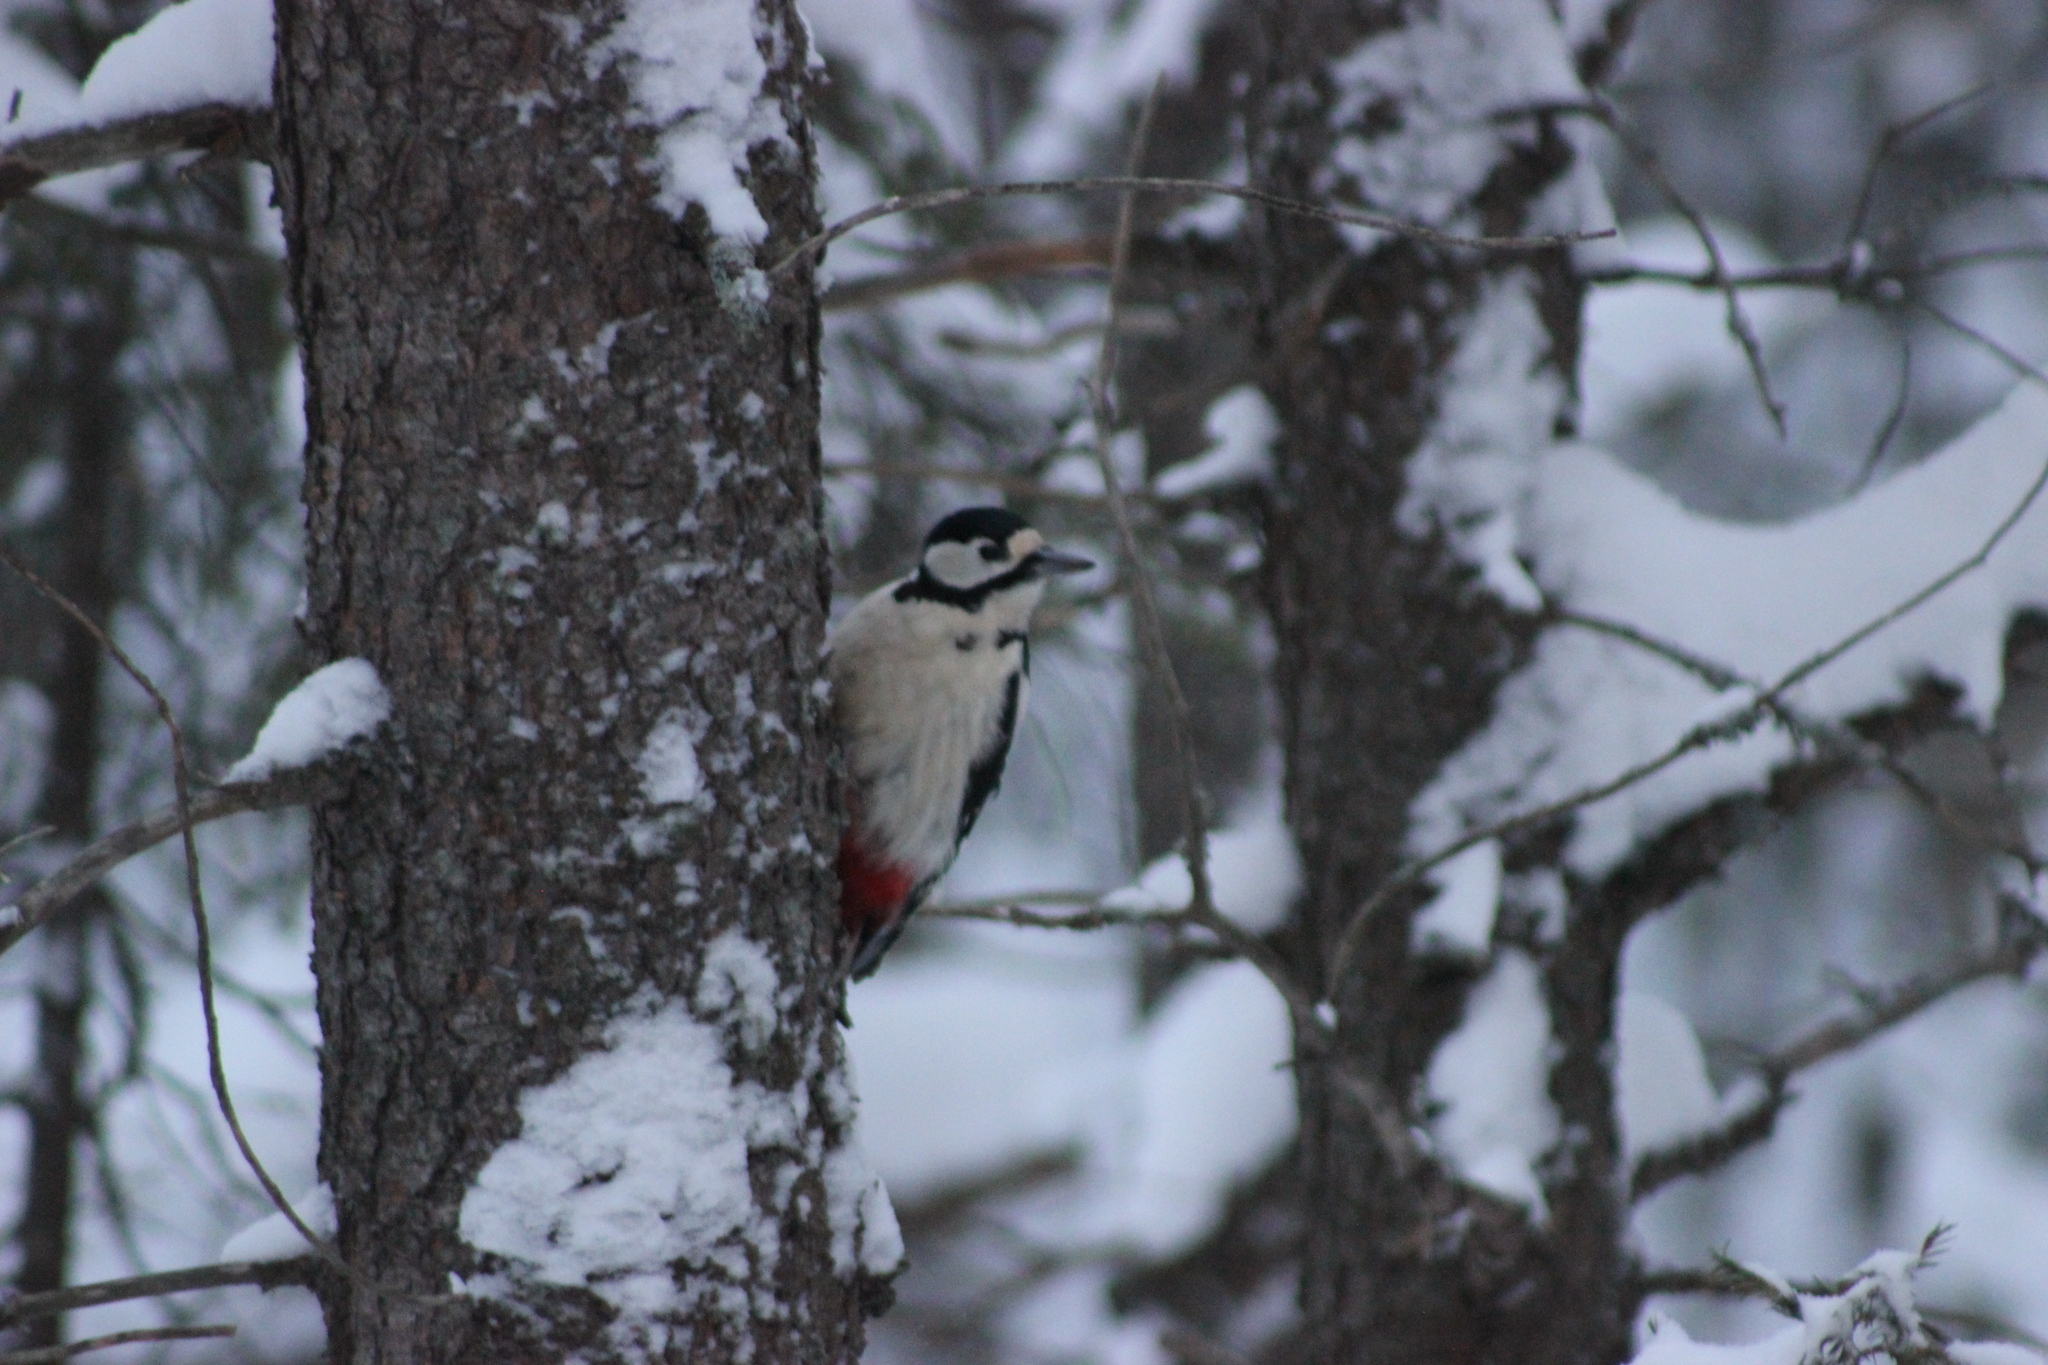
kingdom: Animalia
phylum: Chordata
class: Aves
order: Piciformes
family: Picidae
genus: Dendrocopos
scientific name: Dendrocopos major
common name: Great spotted woodpecker
